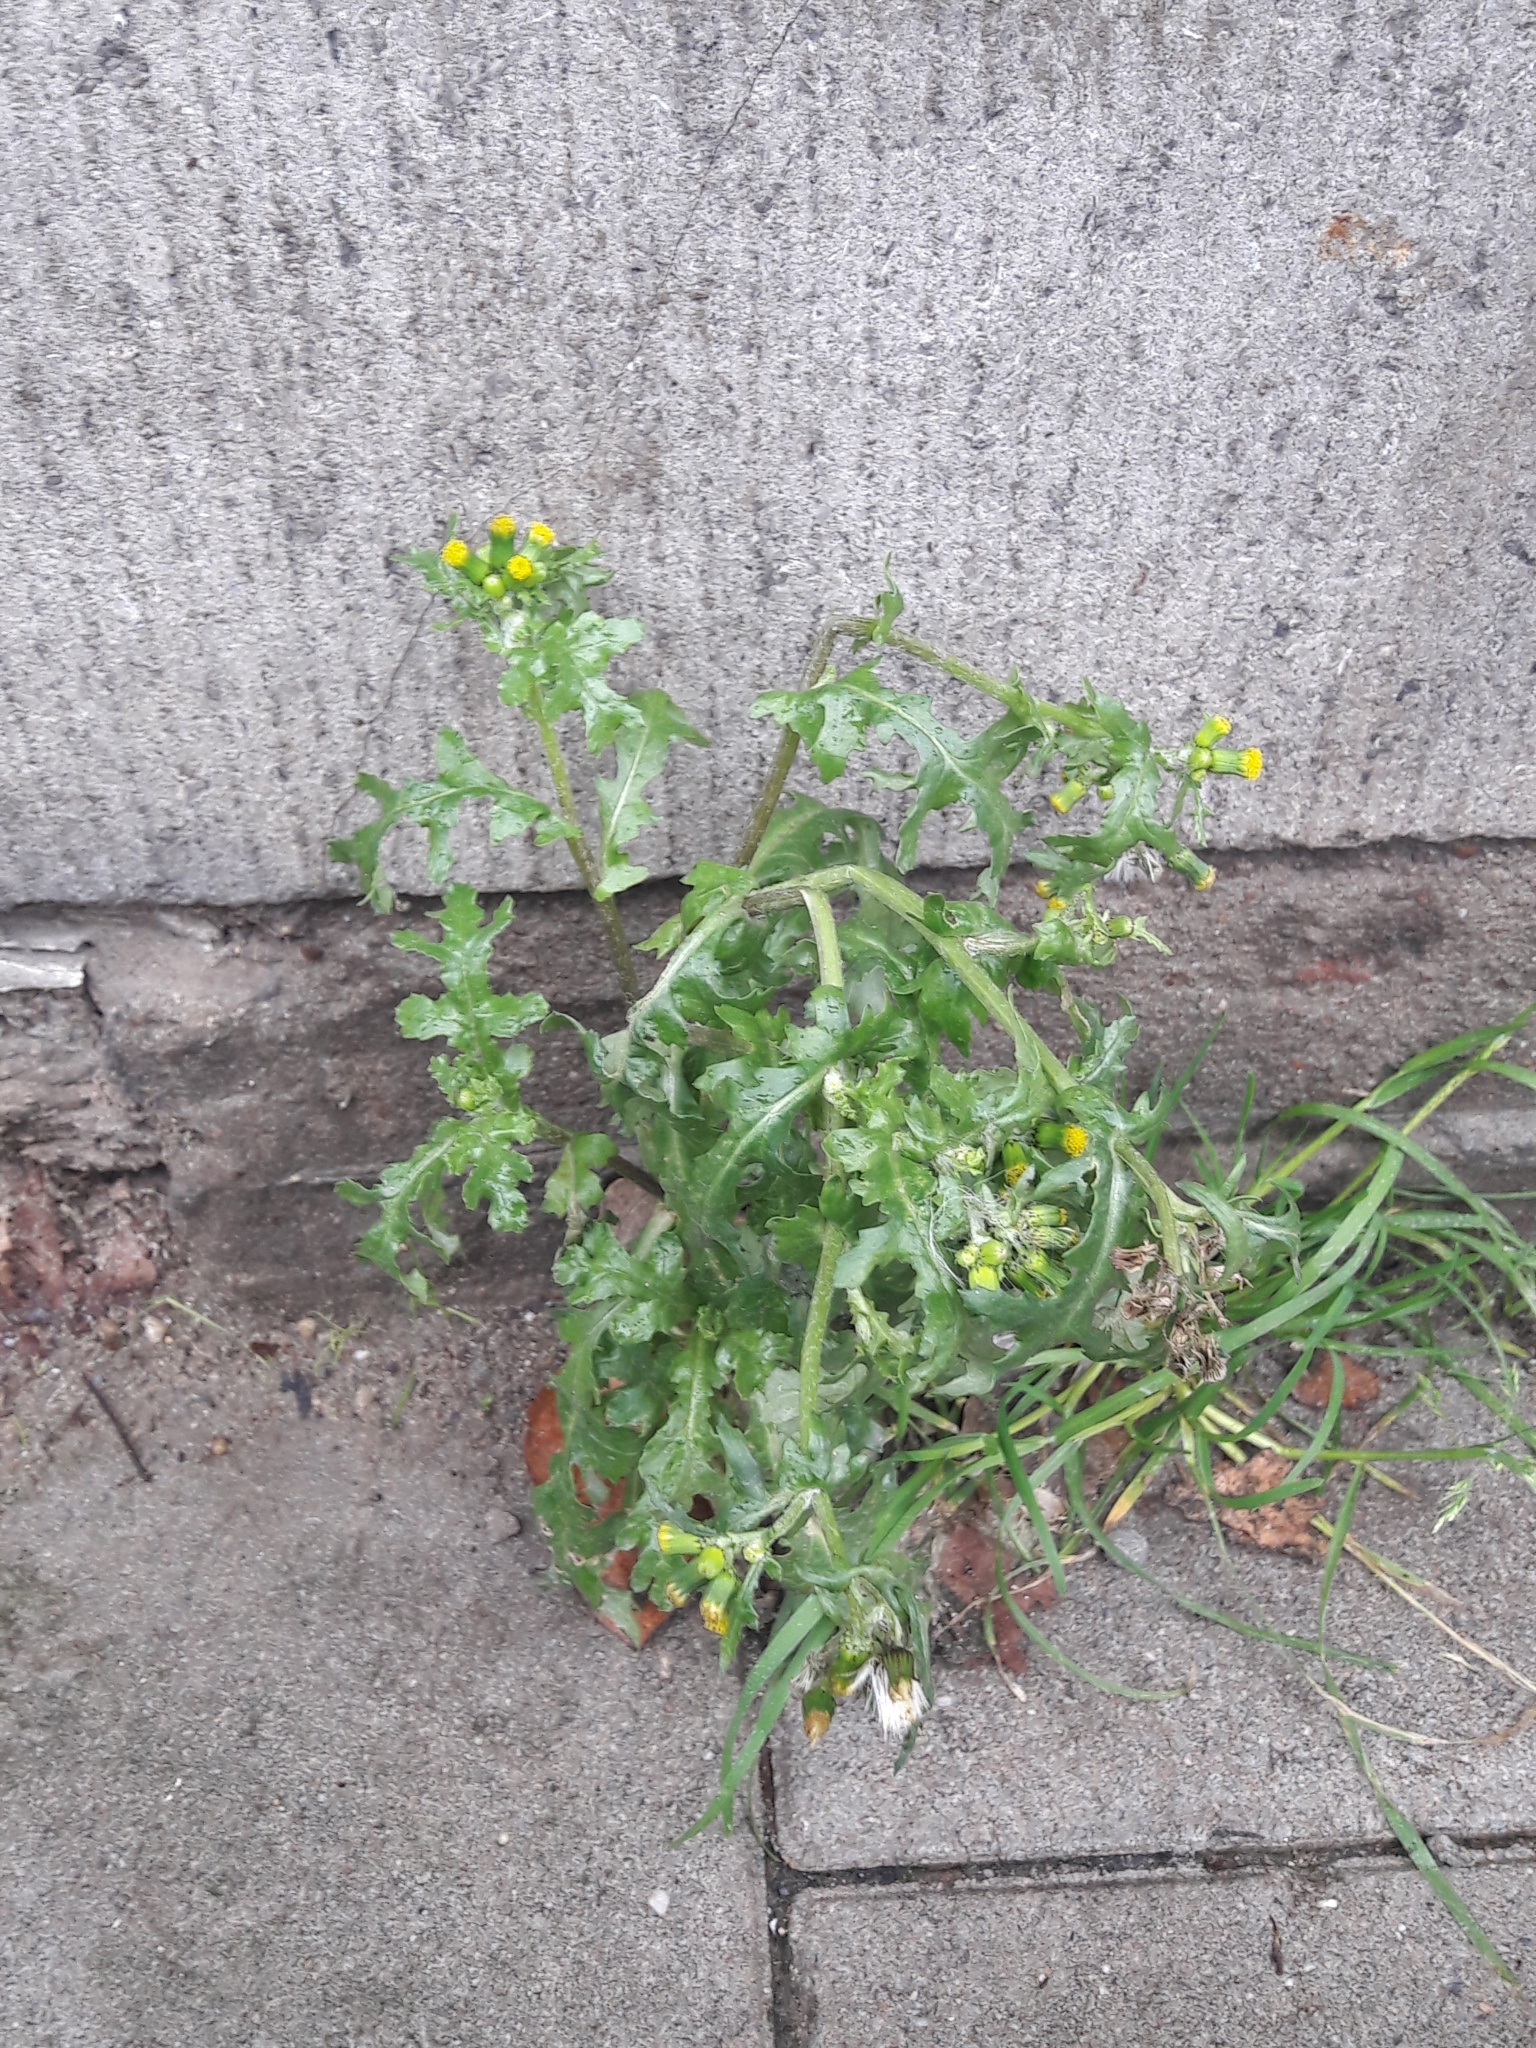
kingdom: Plantae
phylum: Tracheophyta
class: Magnoliopsida
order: Asterales
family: Asteraceae
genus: Senecio
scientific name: Senecio vulgaris
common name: Old-man-in-the-spring
